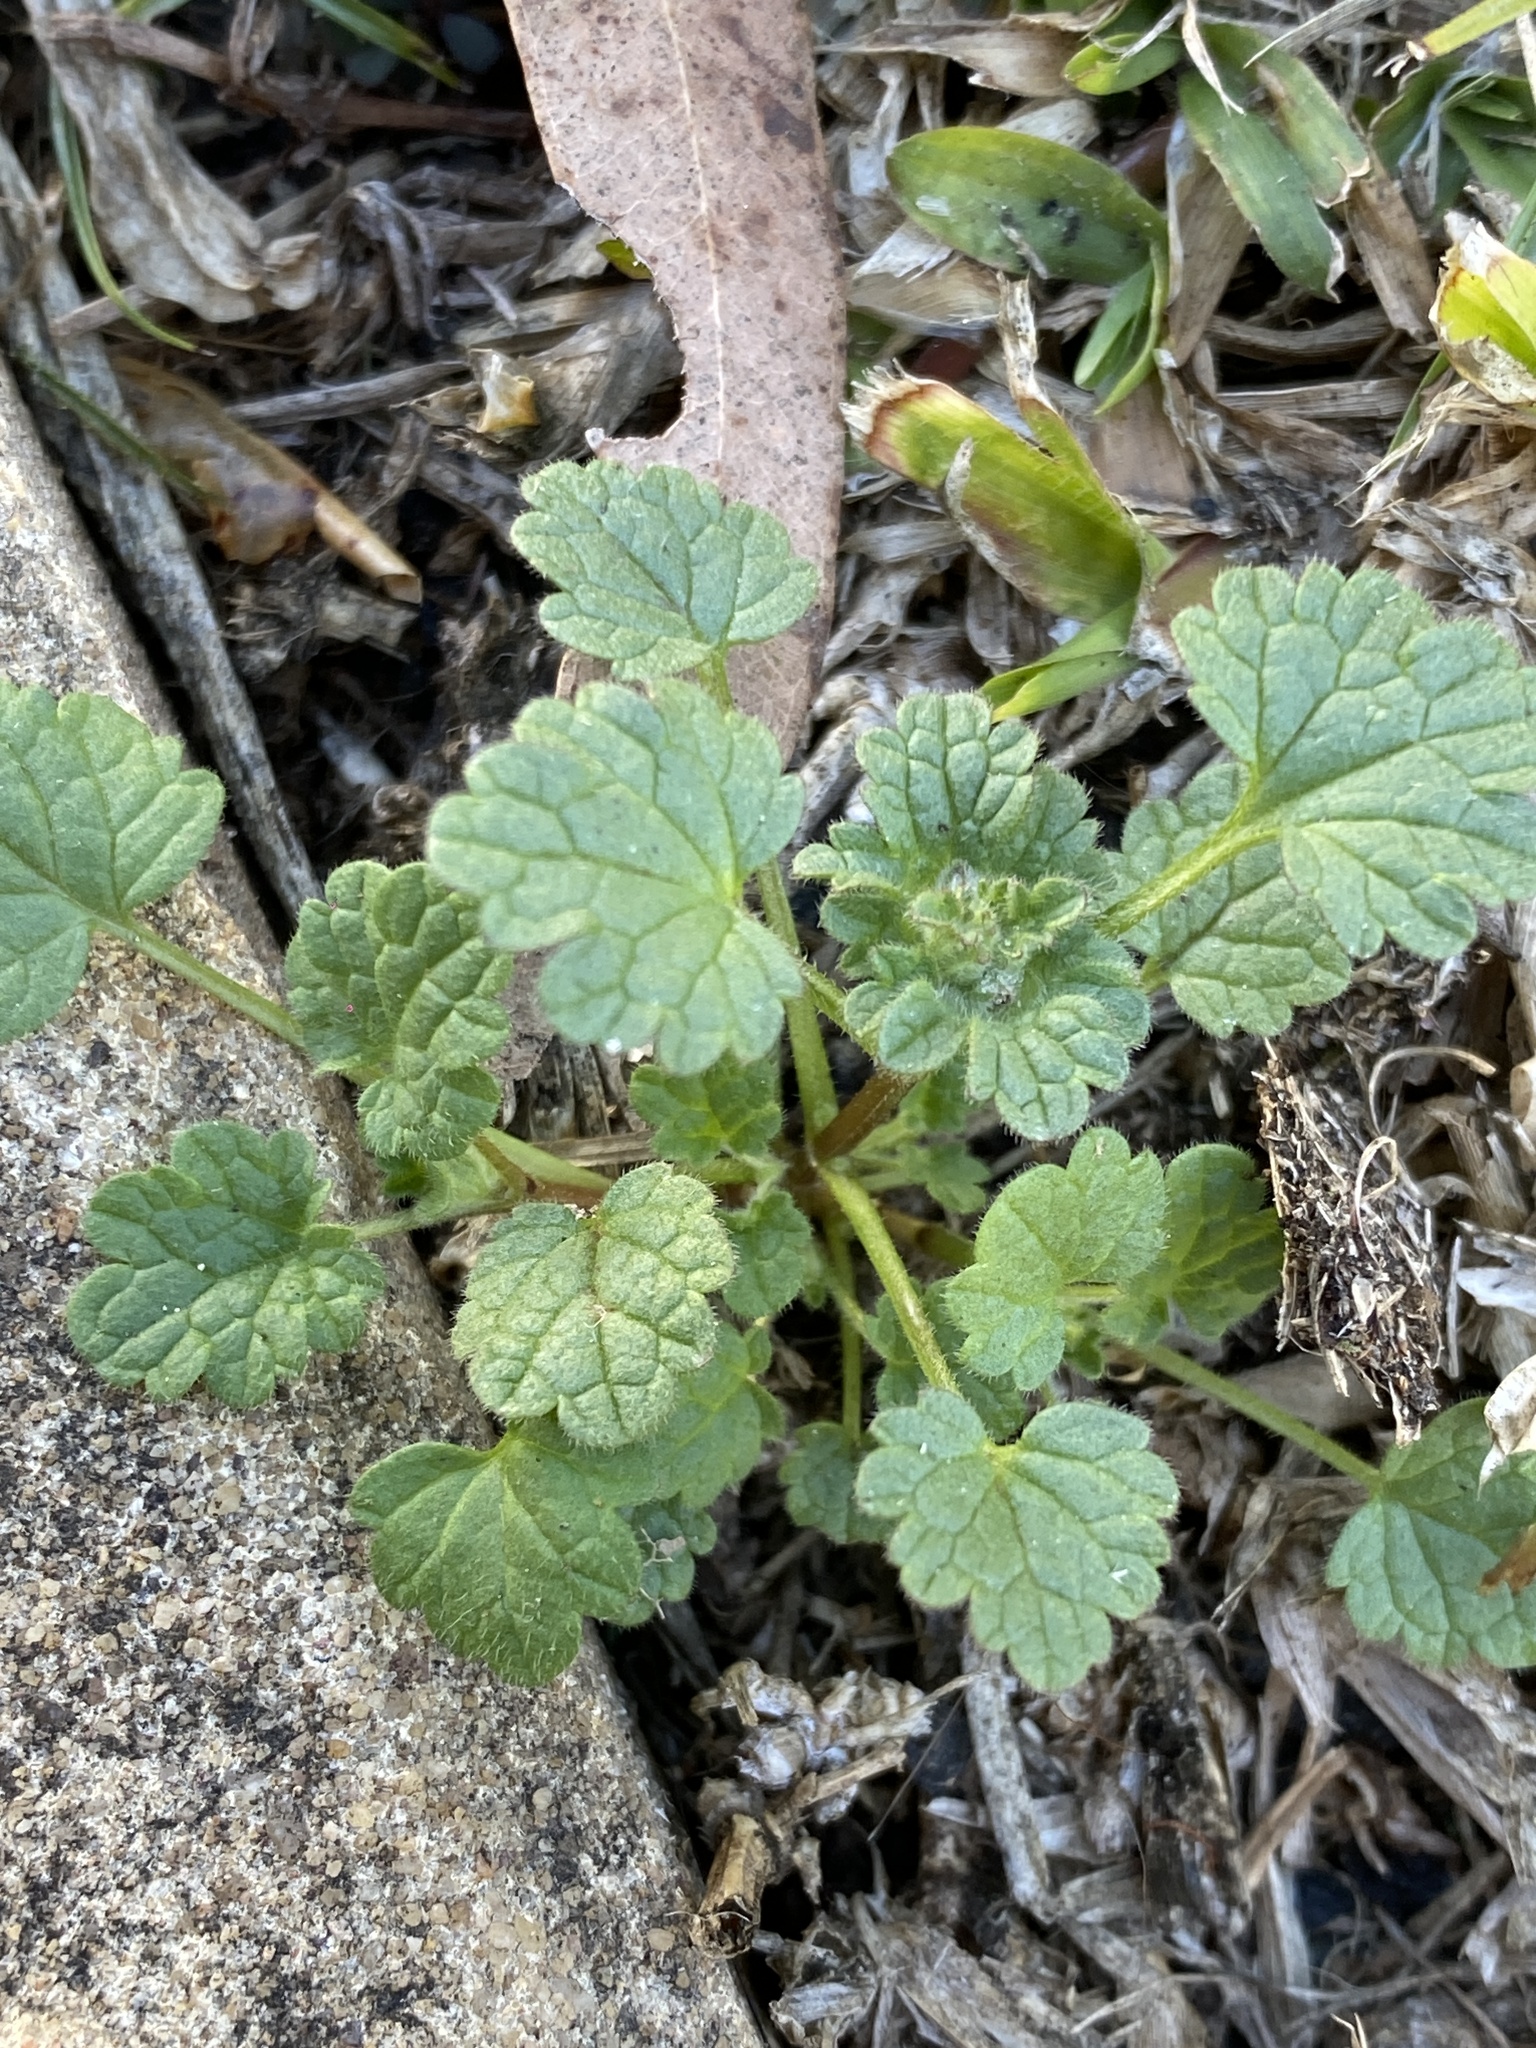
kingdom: Plantae
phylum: Tracheophyta
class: Magnoliopsida
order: Lamiales
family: Lamiaceae
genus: Lamium
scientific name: Lamium amplexicaule
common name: Henbit dead-nettle
